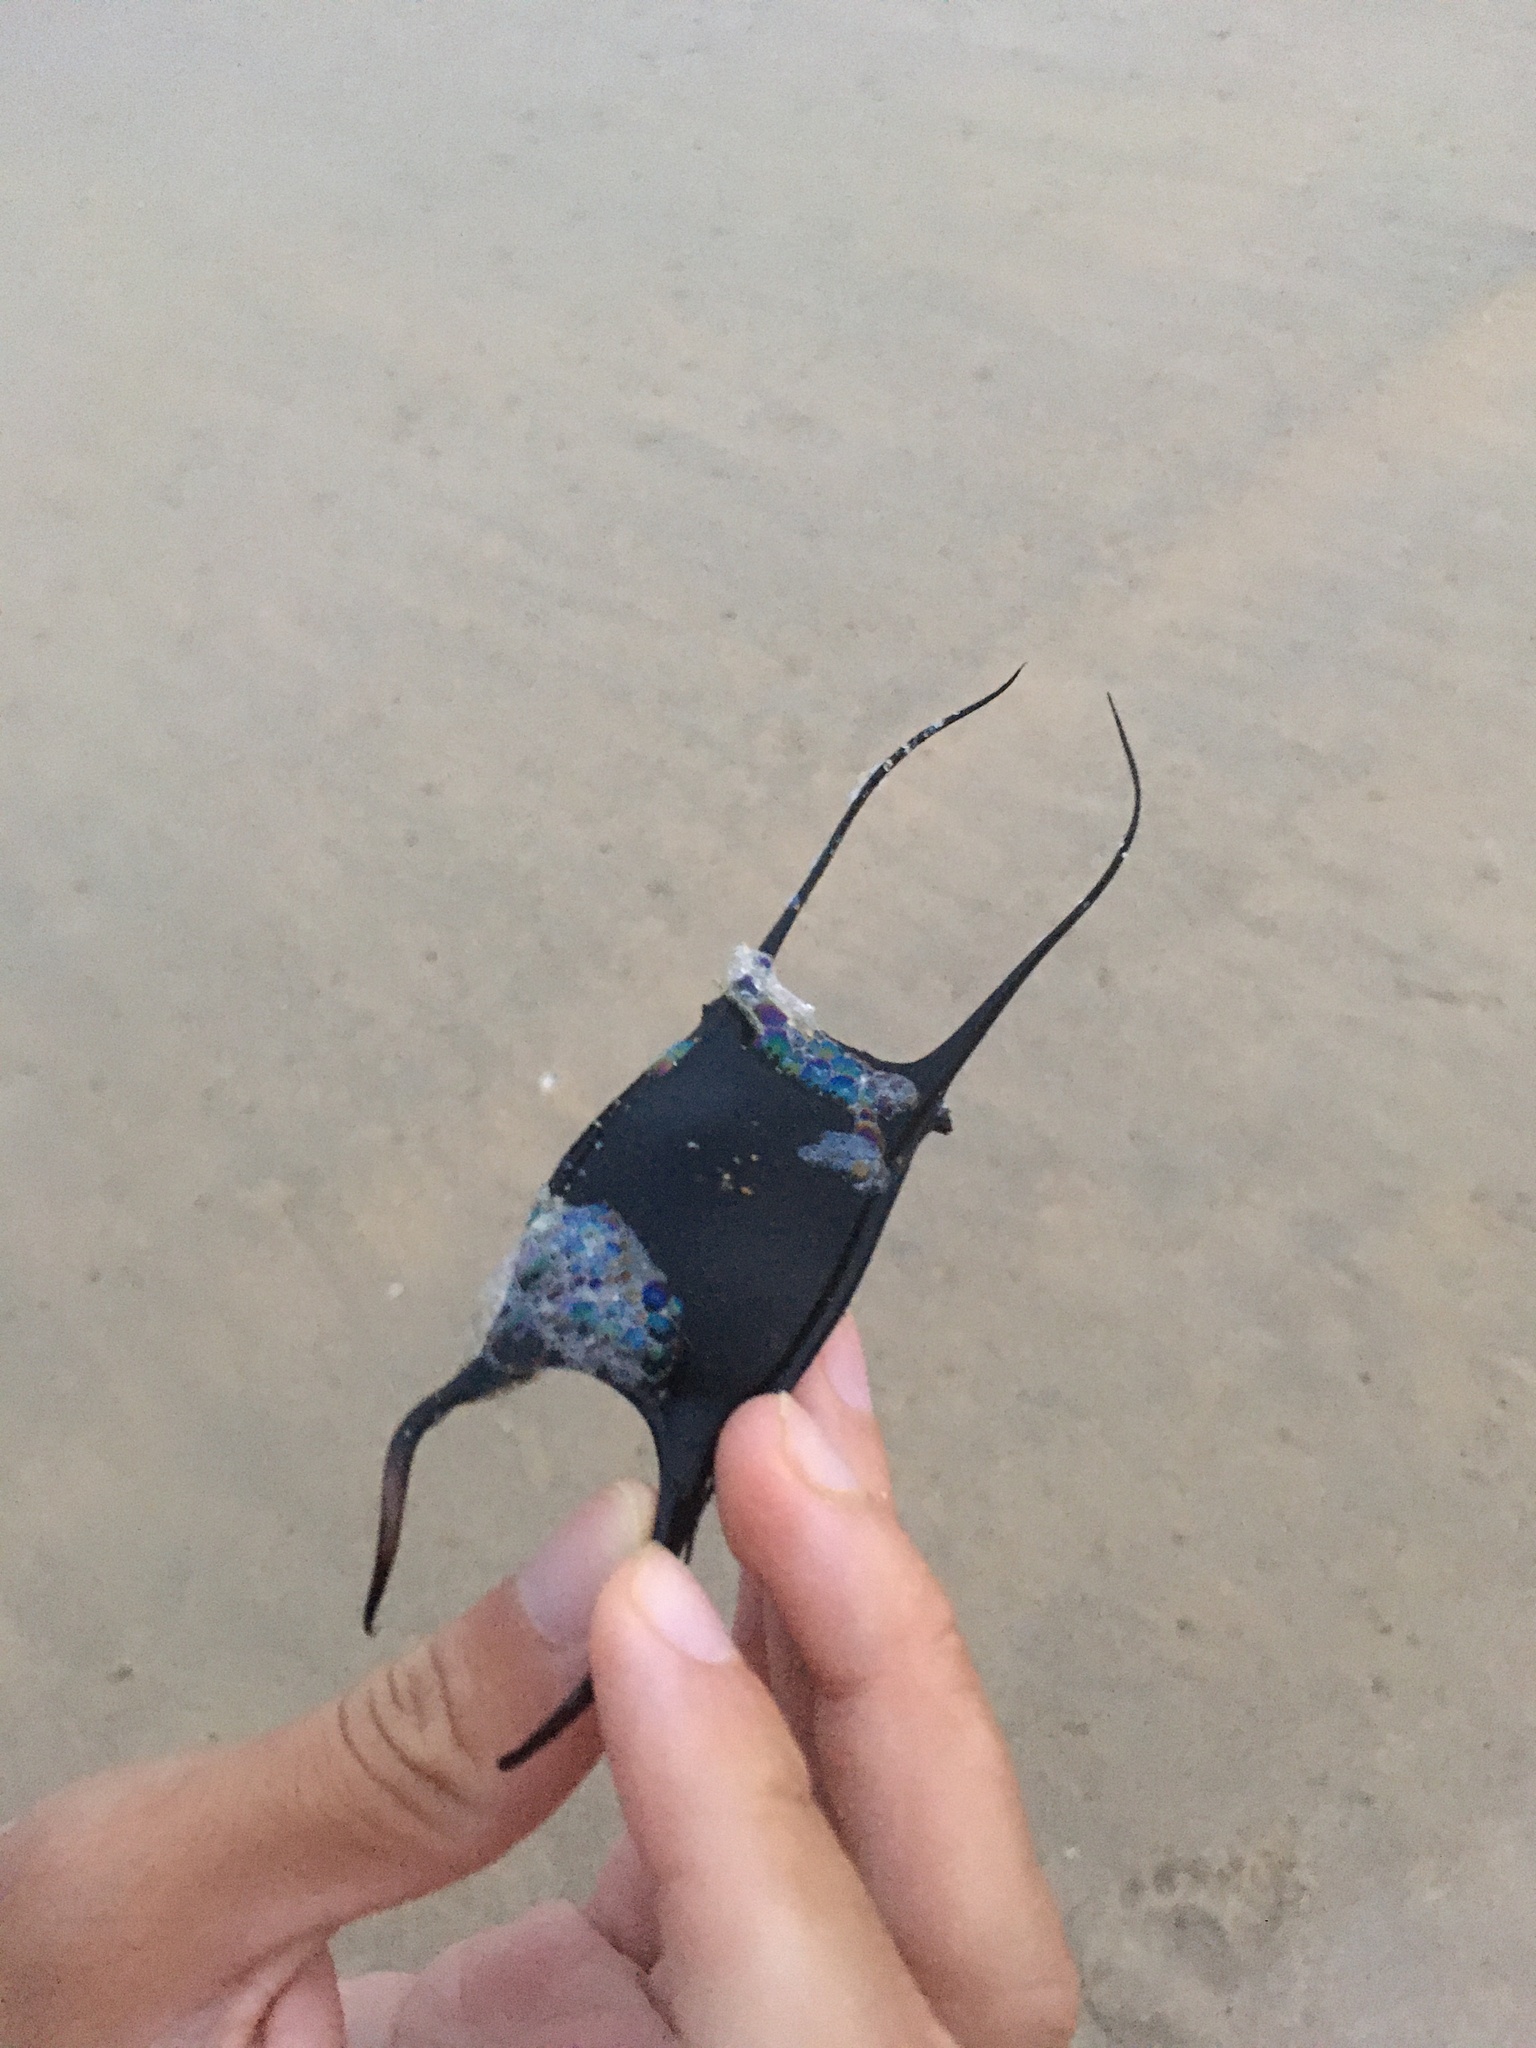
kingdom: Animalia
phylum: Chordata
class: Elasmobranchii
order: Rajiformes
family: Rajidae
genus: Leucoraja
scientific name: Leucoraja erinacea
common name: Little skate
